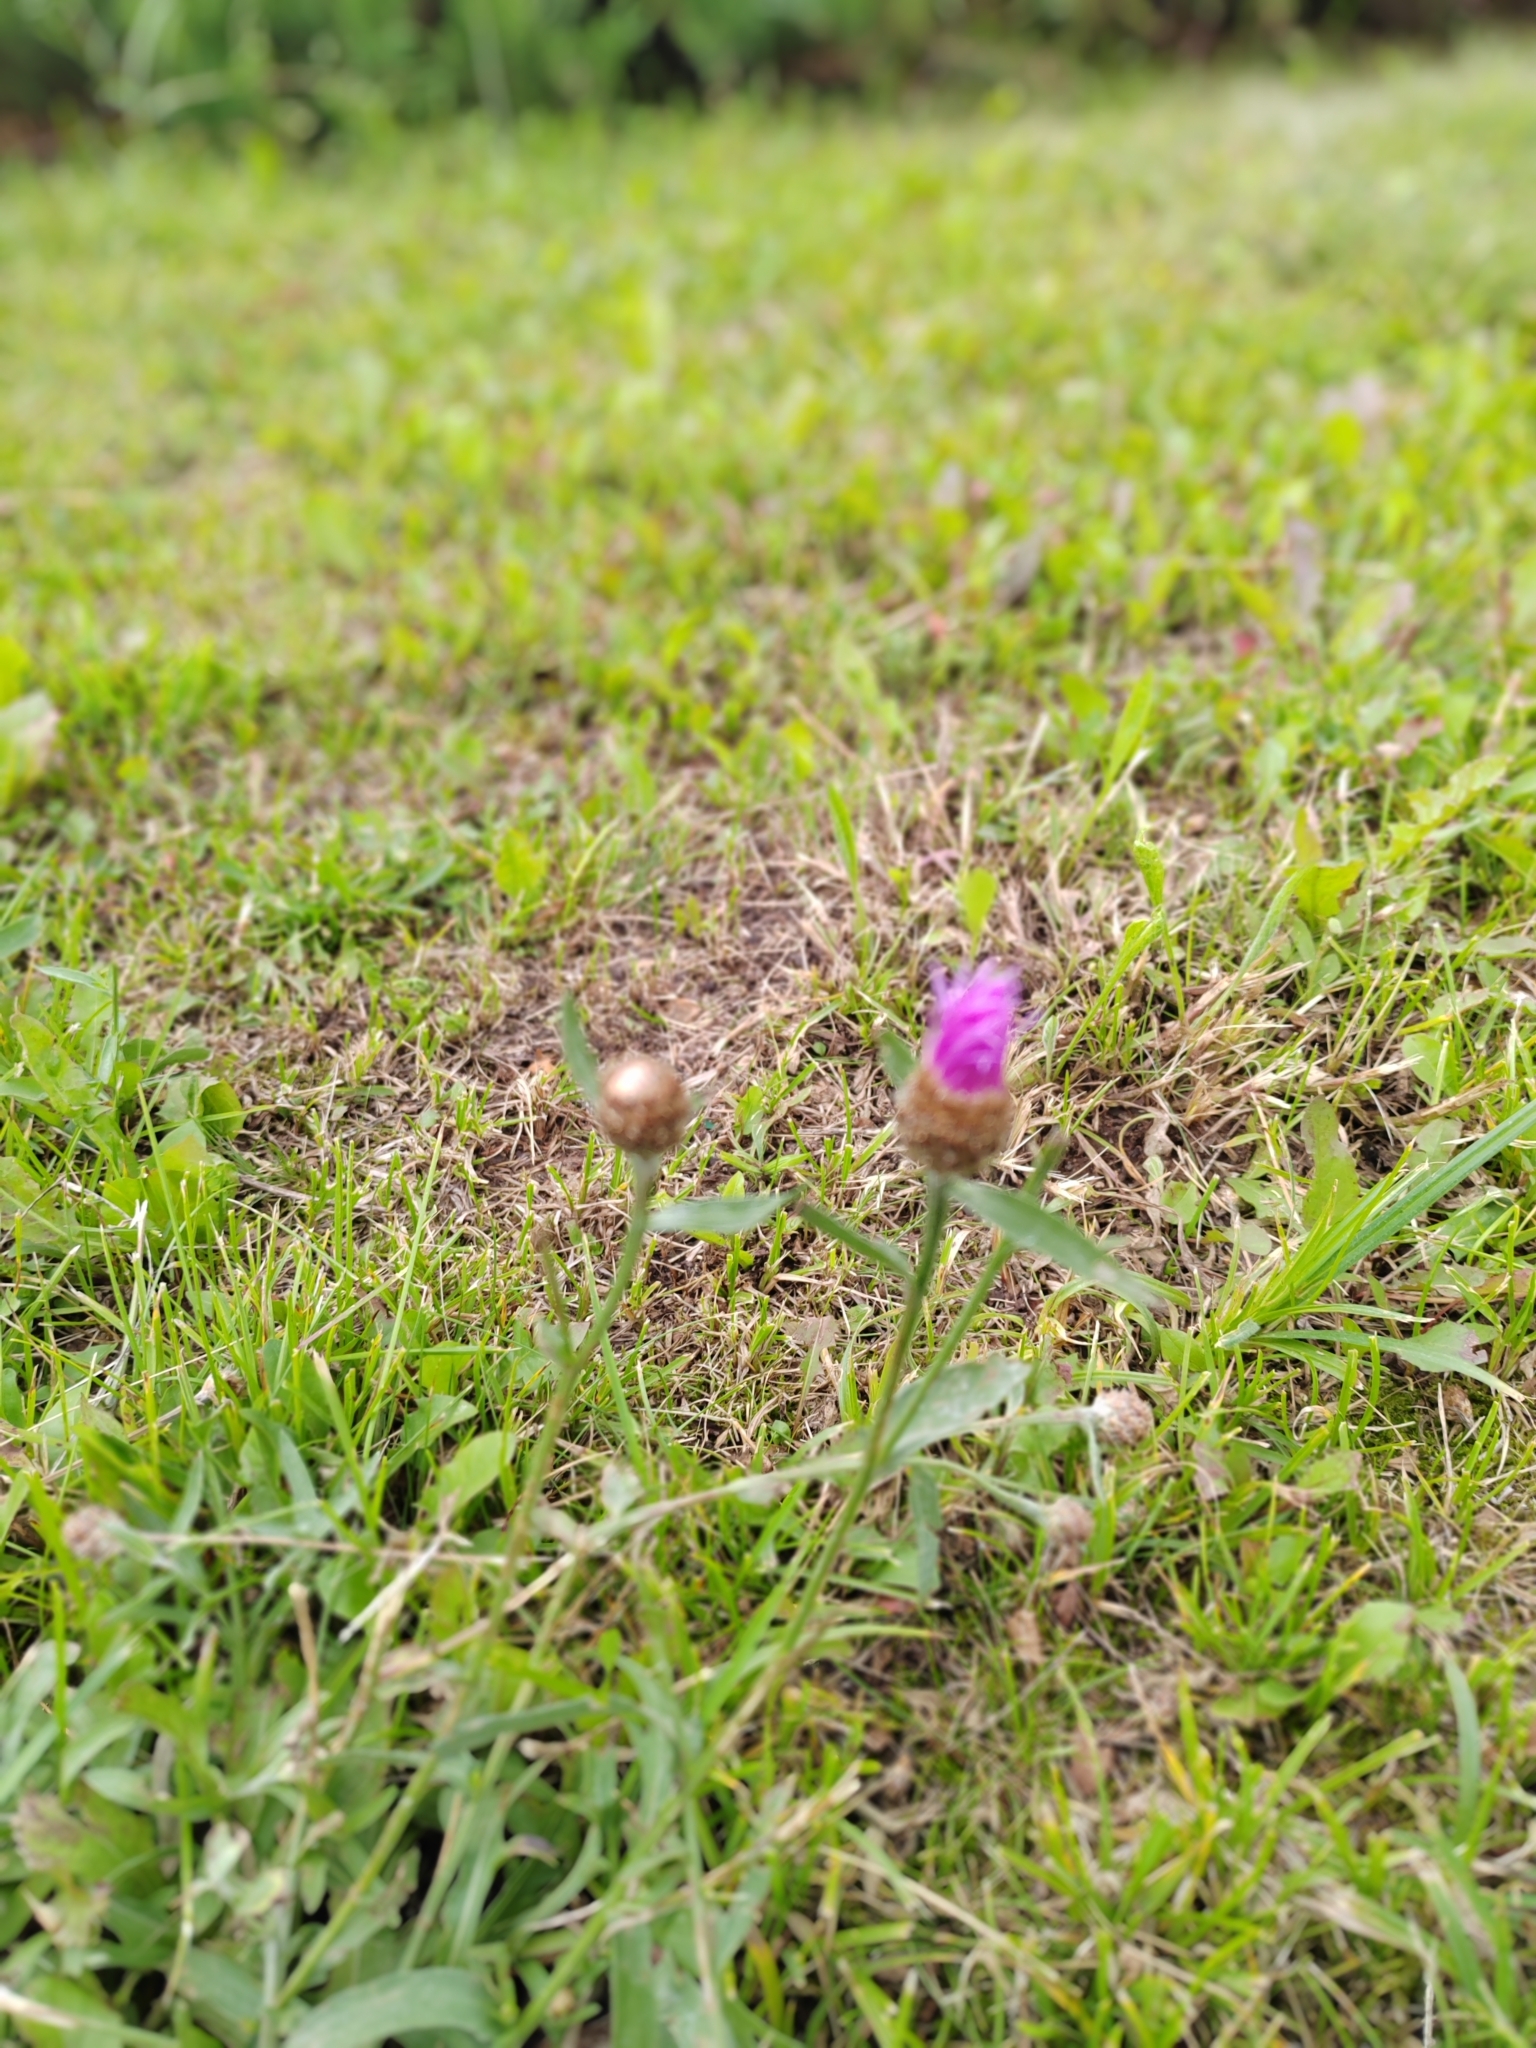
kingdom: Plantae
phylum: Tracheophyta
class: Magnoliopsida
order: Asterales
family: Asteraceae
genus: Centaurea
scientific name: Centaurea jacea
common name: Brown knapweed
